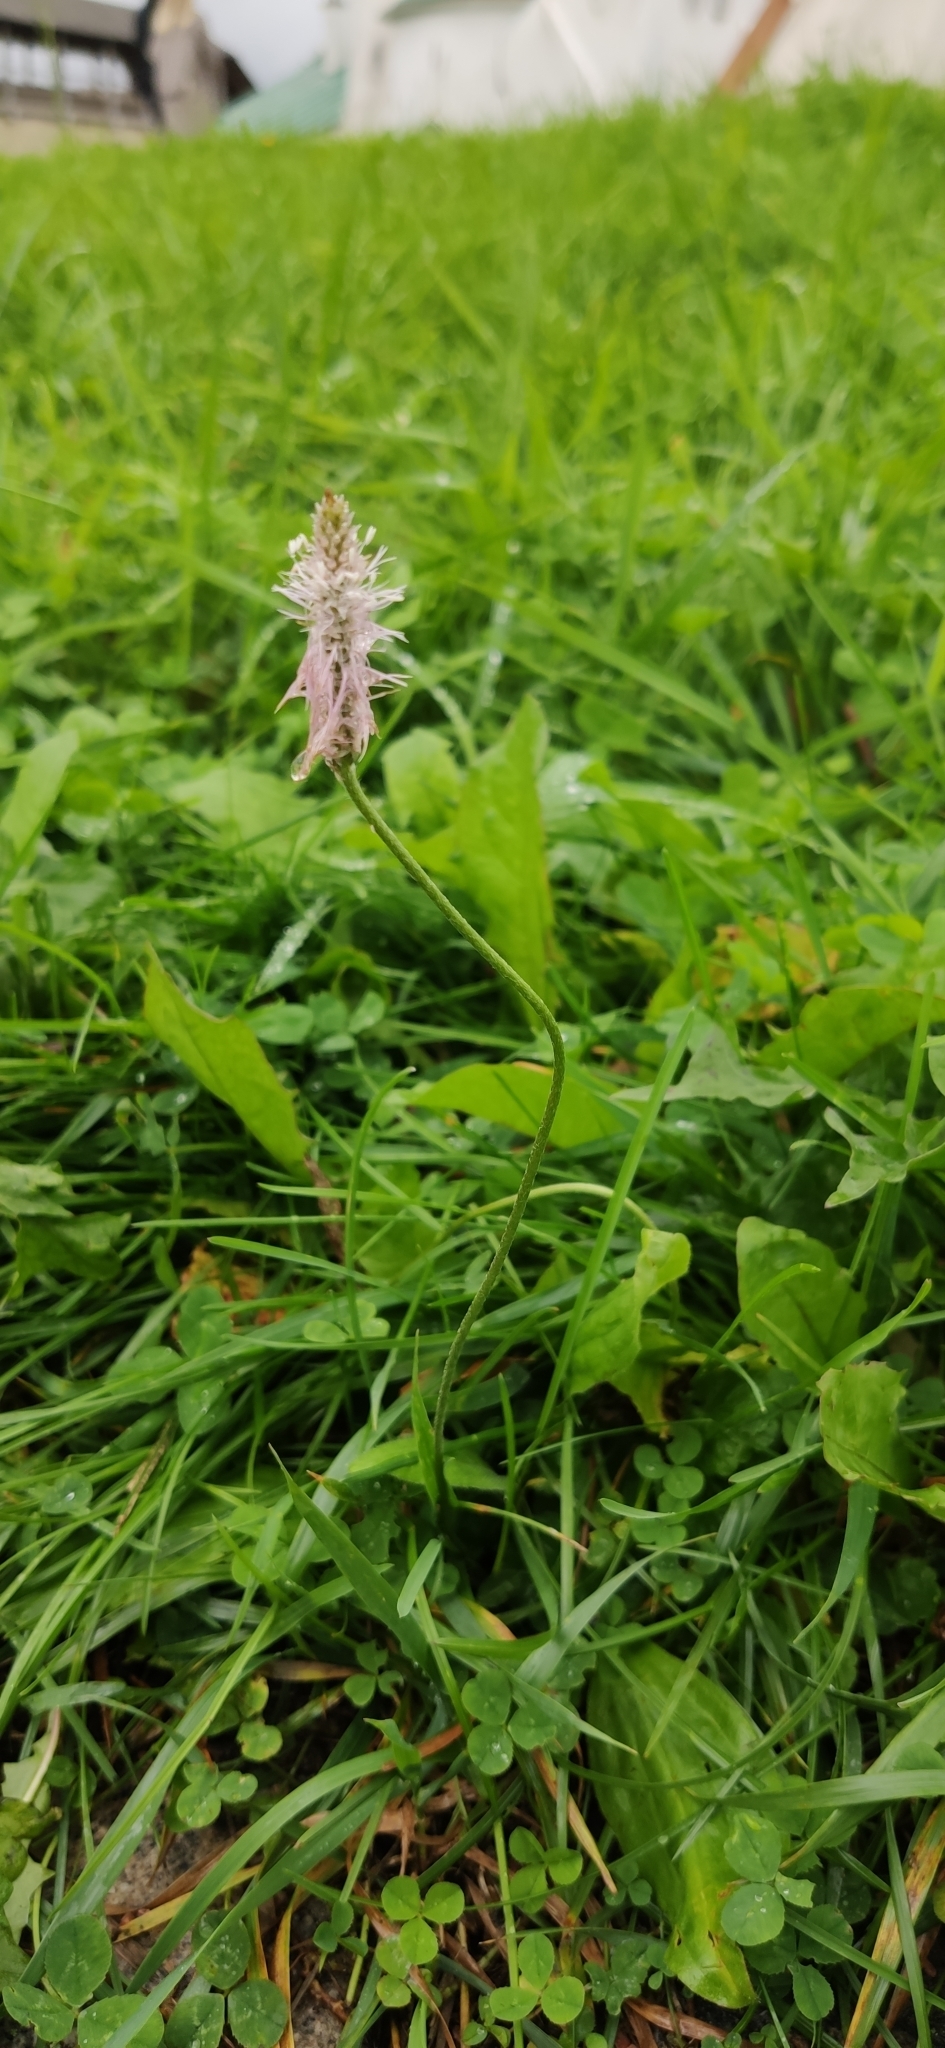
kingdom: Plantae
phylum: Tracheophyta
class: Magnoliopsida
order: Lamiales
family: Plantaginaceae
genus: Plantago
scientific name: Plantago media
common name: Hoary plantain
